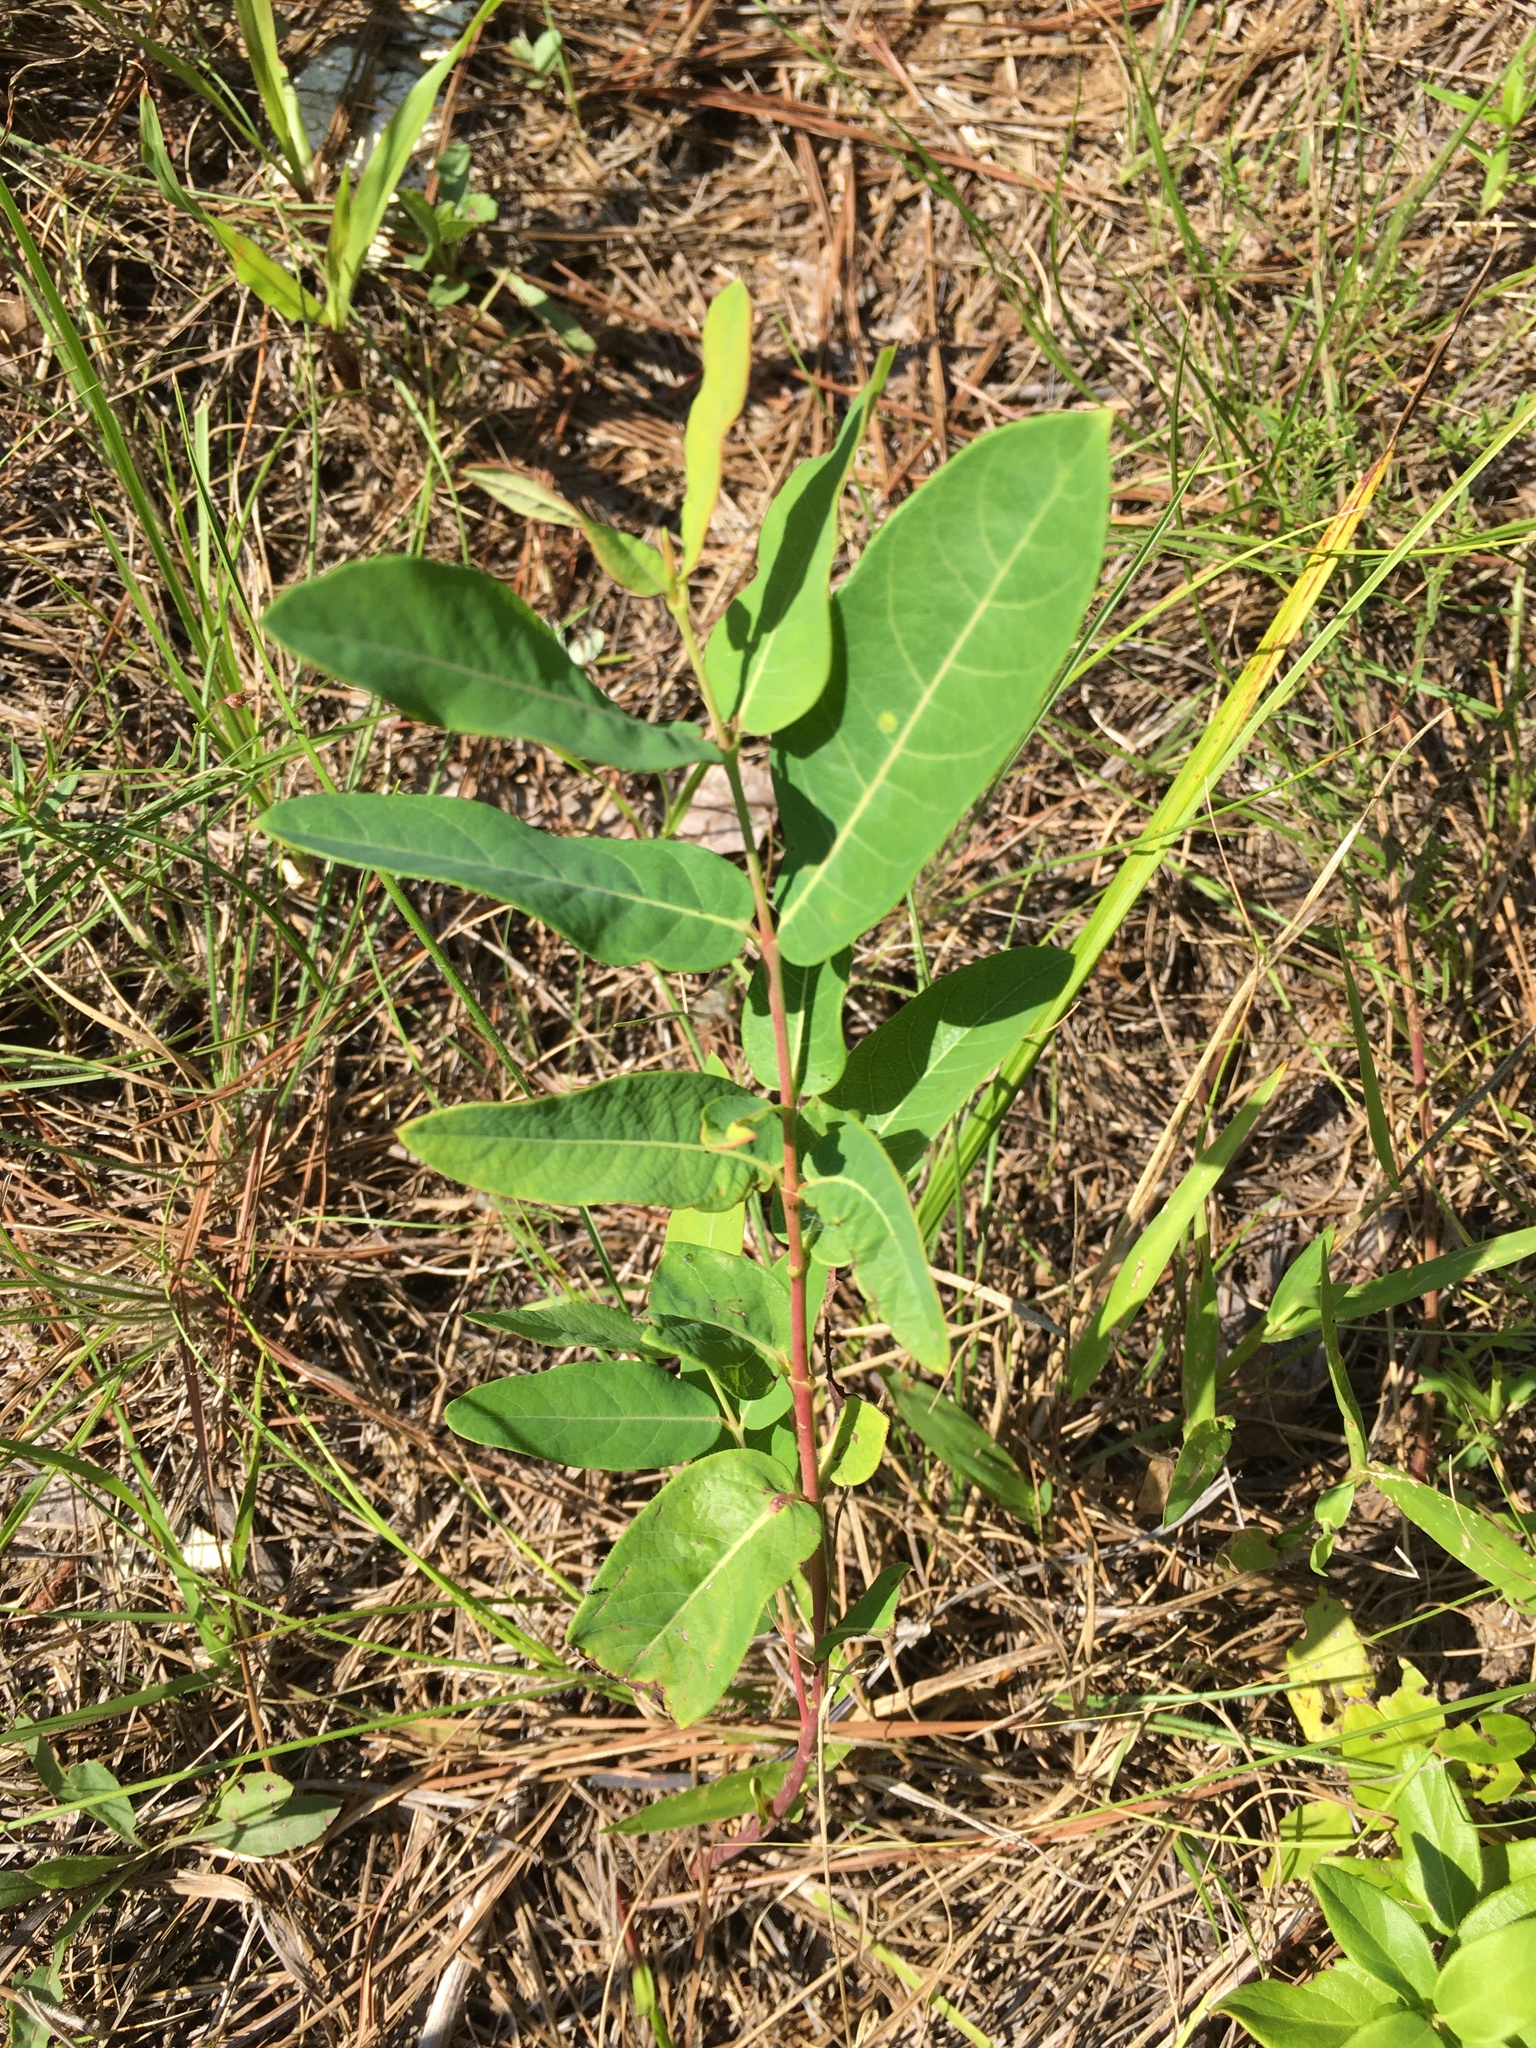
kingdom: Plantae
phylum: Tracheophyta
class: Magnoliopsida
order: Gentianales
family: Apocynaceae
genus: Apocynum
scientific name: Apocynum cannabinum
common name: Hemp dogbane
